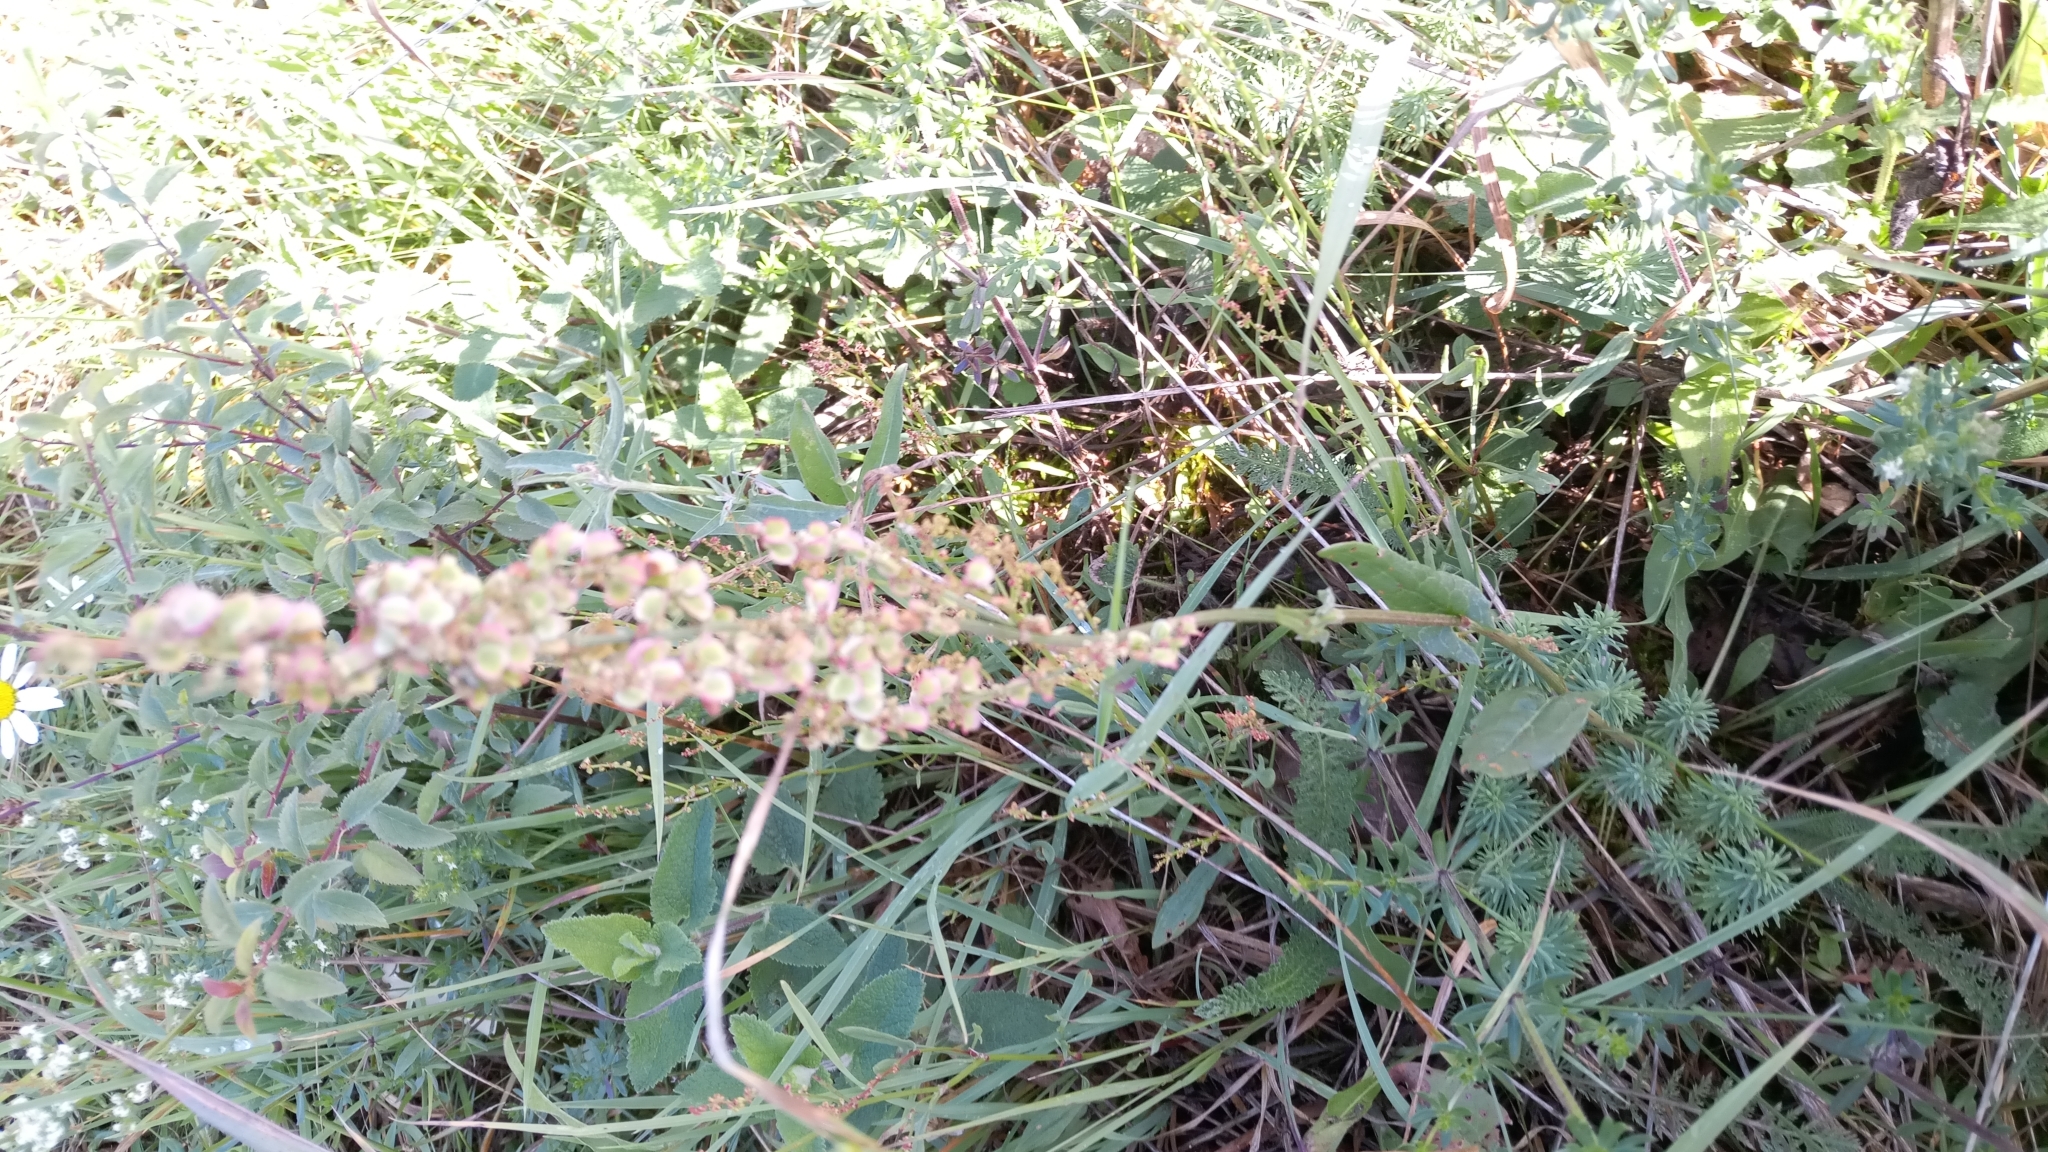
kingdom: Plantae
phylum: Tracheophyta
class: Magnoliopsida
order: Caryophyllales
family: Polygonaceae
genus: Rumex
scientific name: Rumex acetosa
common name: Garden sorrel
